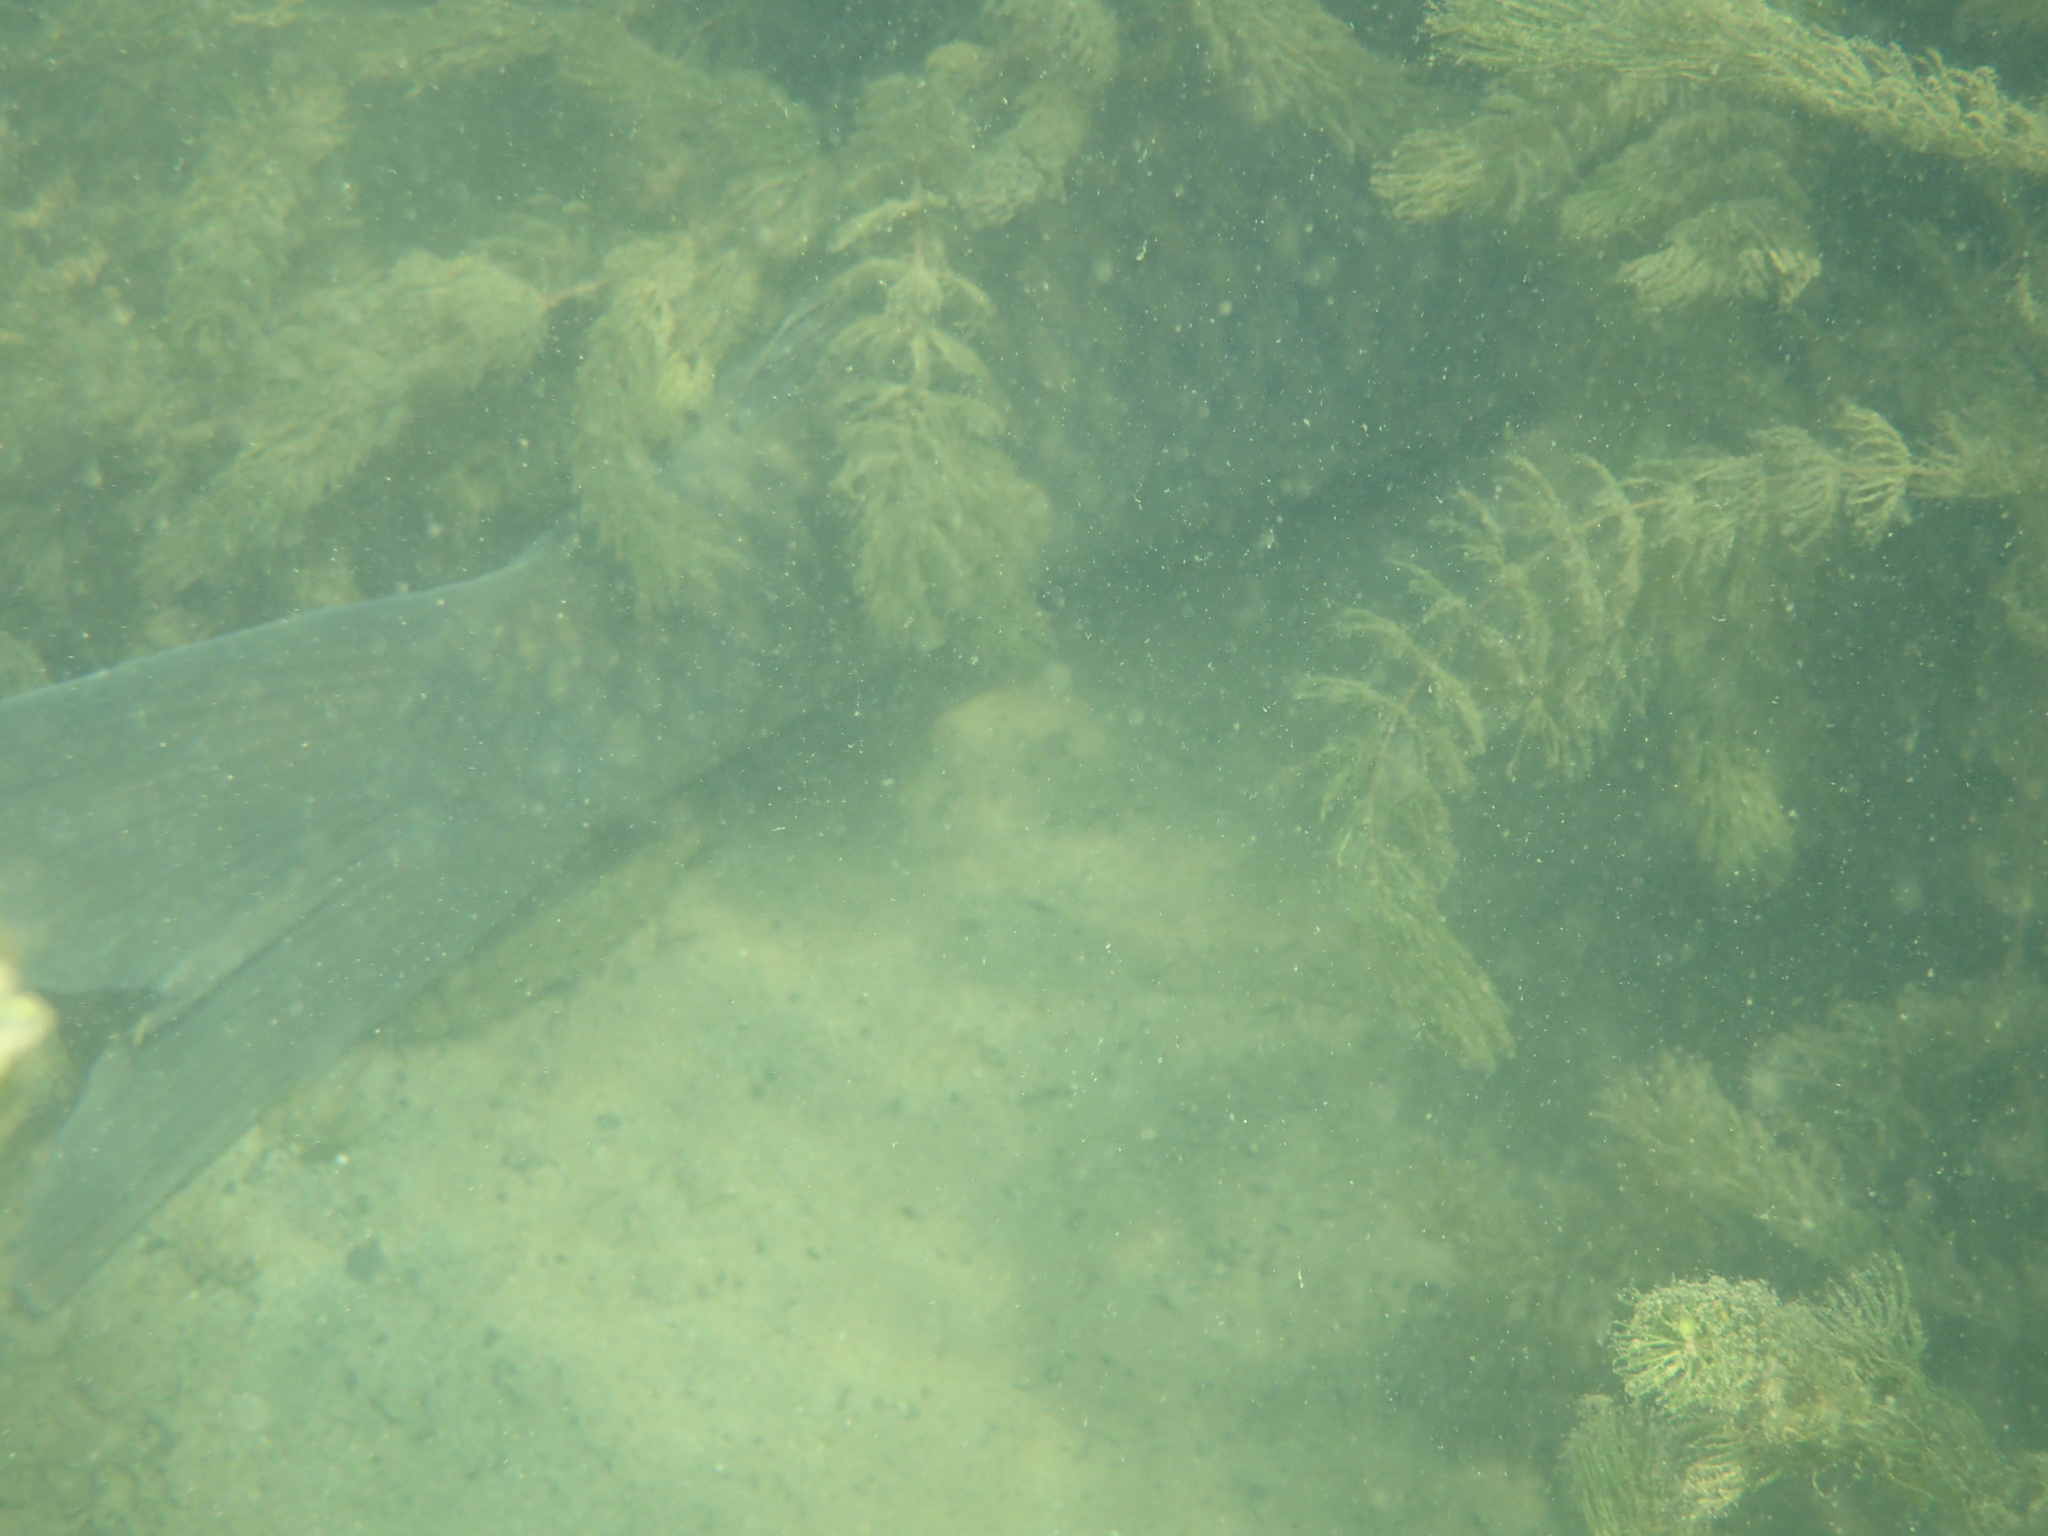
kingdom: Animalia
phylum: Chordata
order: Cypriniformes
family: Cyprinidae
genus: Cyprinus
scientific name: Cyprinus carpio
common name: Common carp
